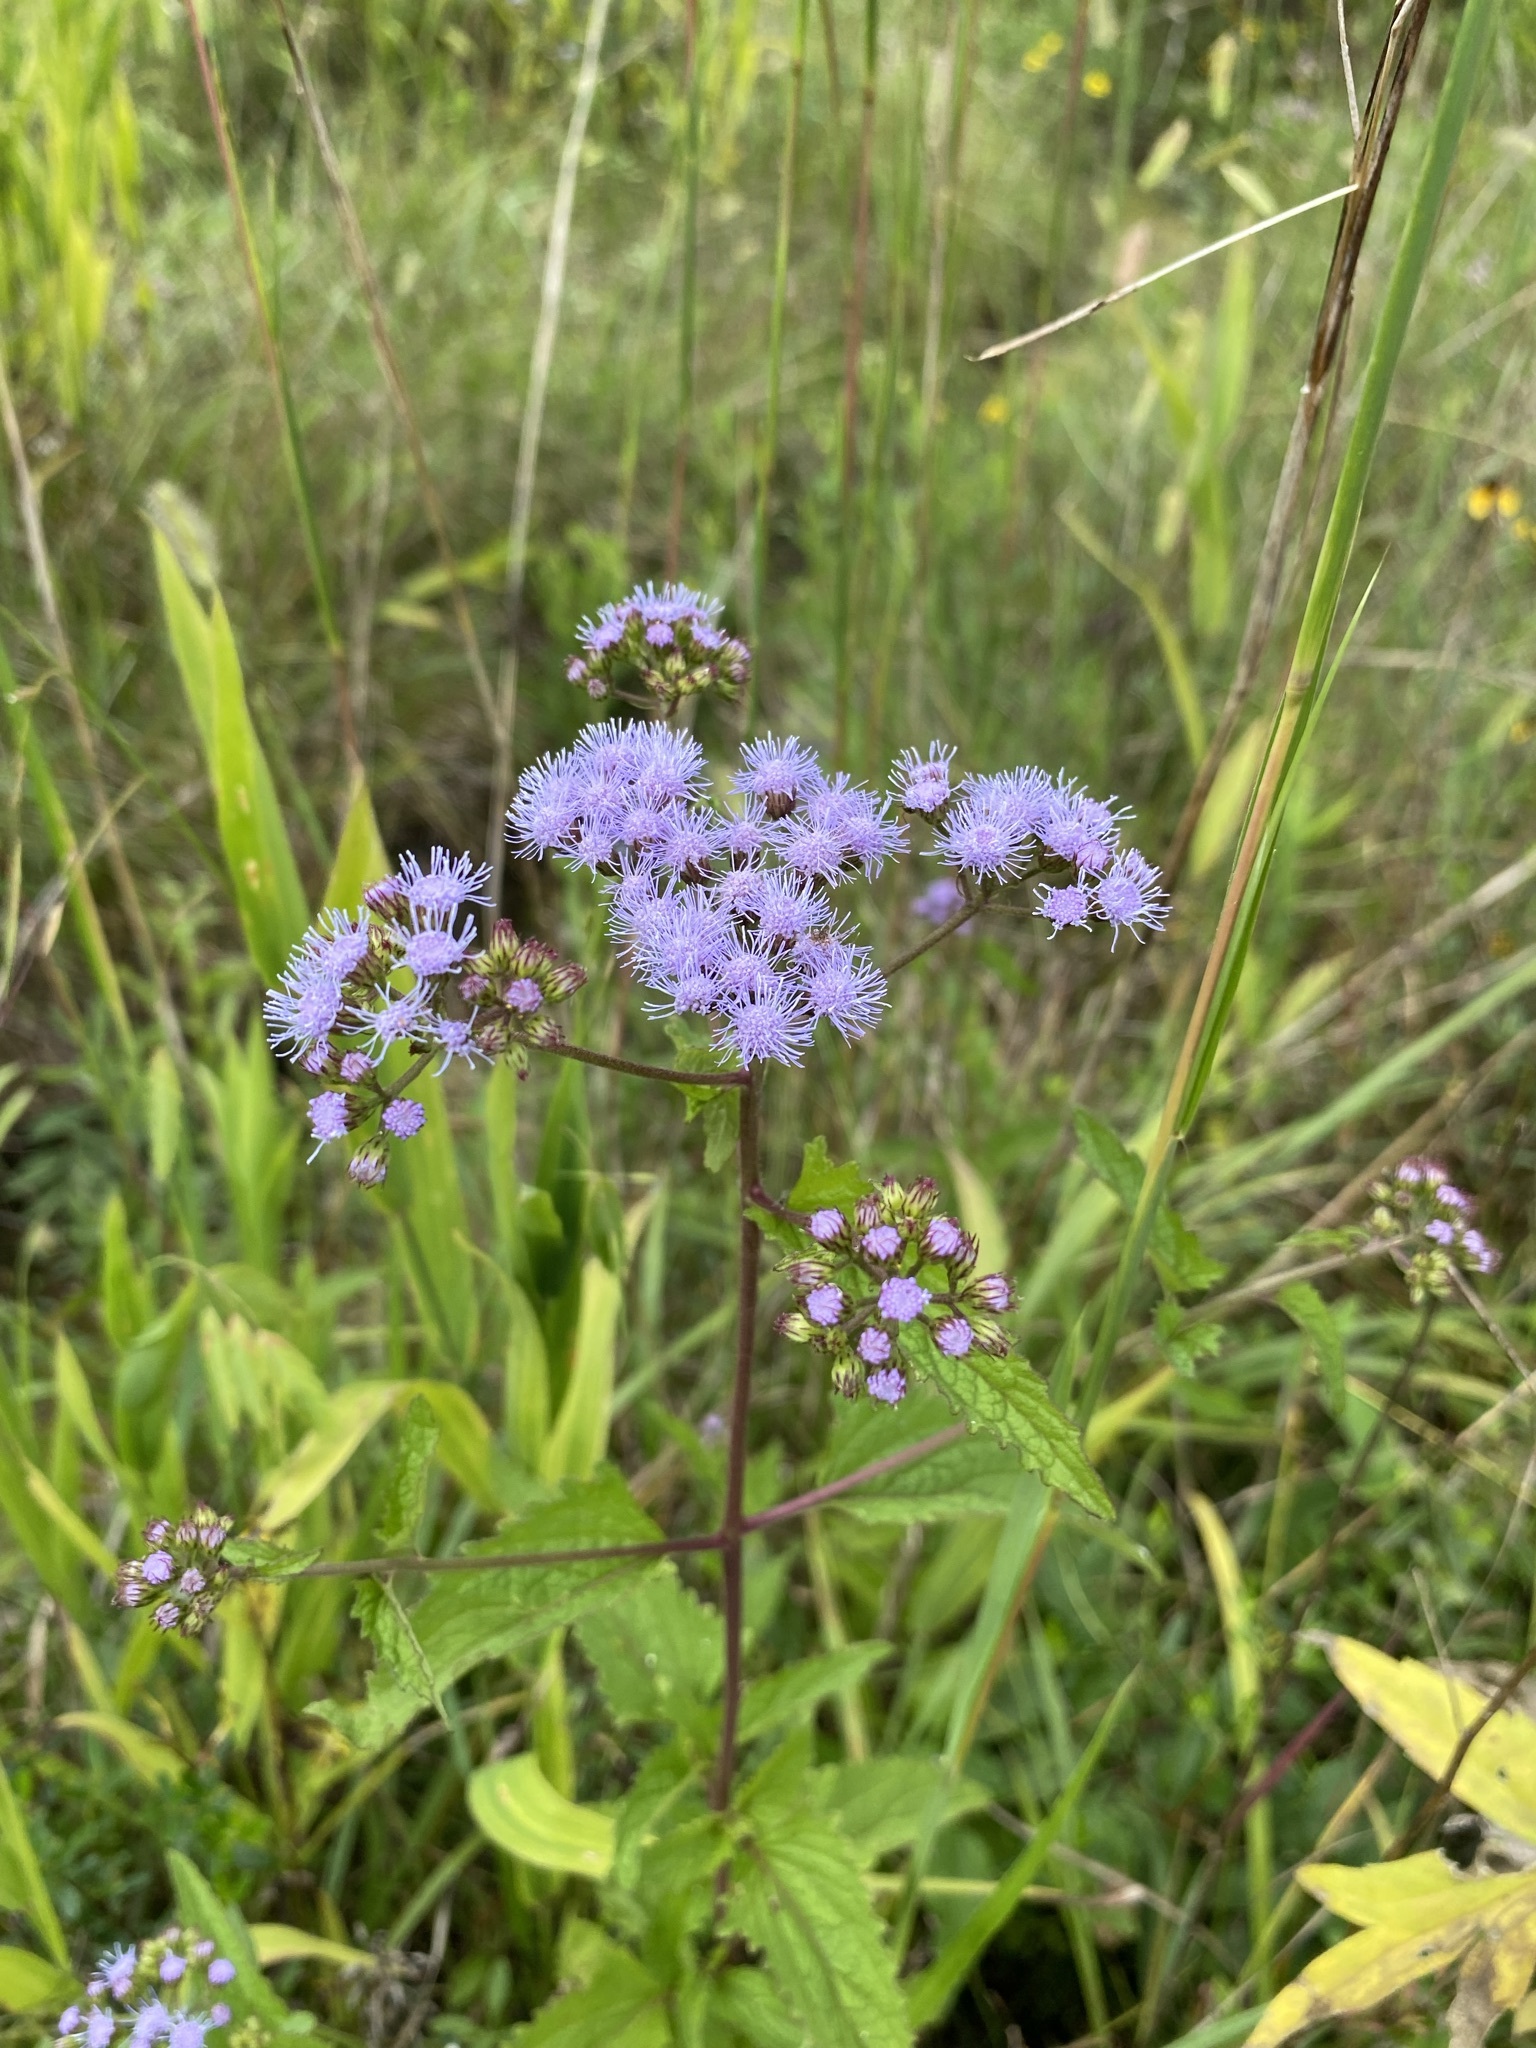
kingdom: Plantae
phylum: Tracheophyta
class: Magnoliopsida
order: Asterales
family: Asteraceae
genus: Conoclinium
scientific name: Conoclinium coelestinum
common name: Blue mistflower
